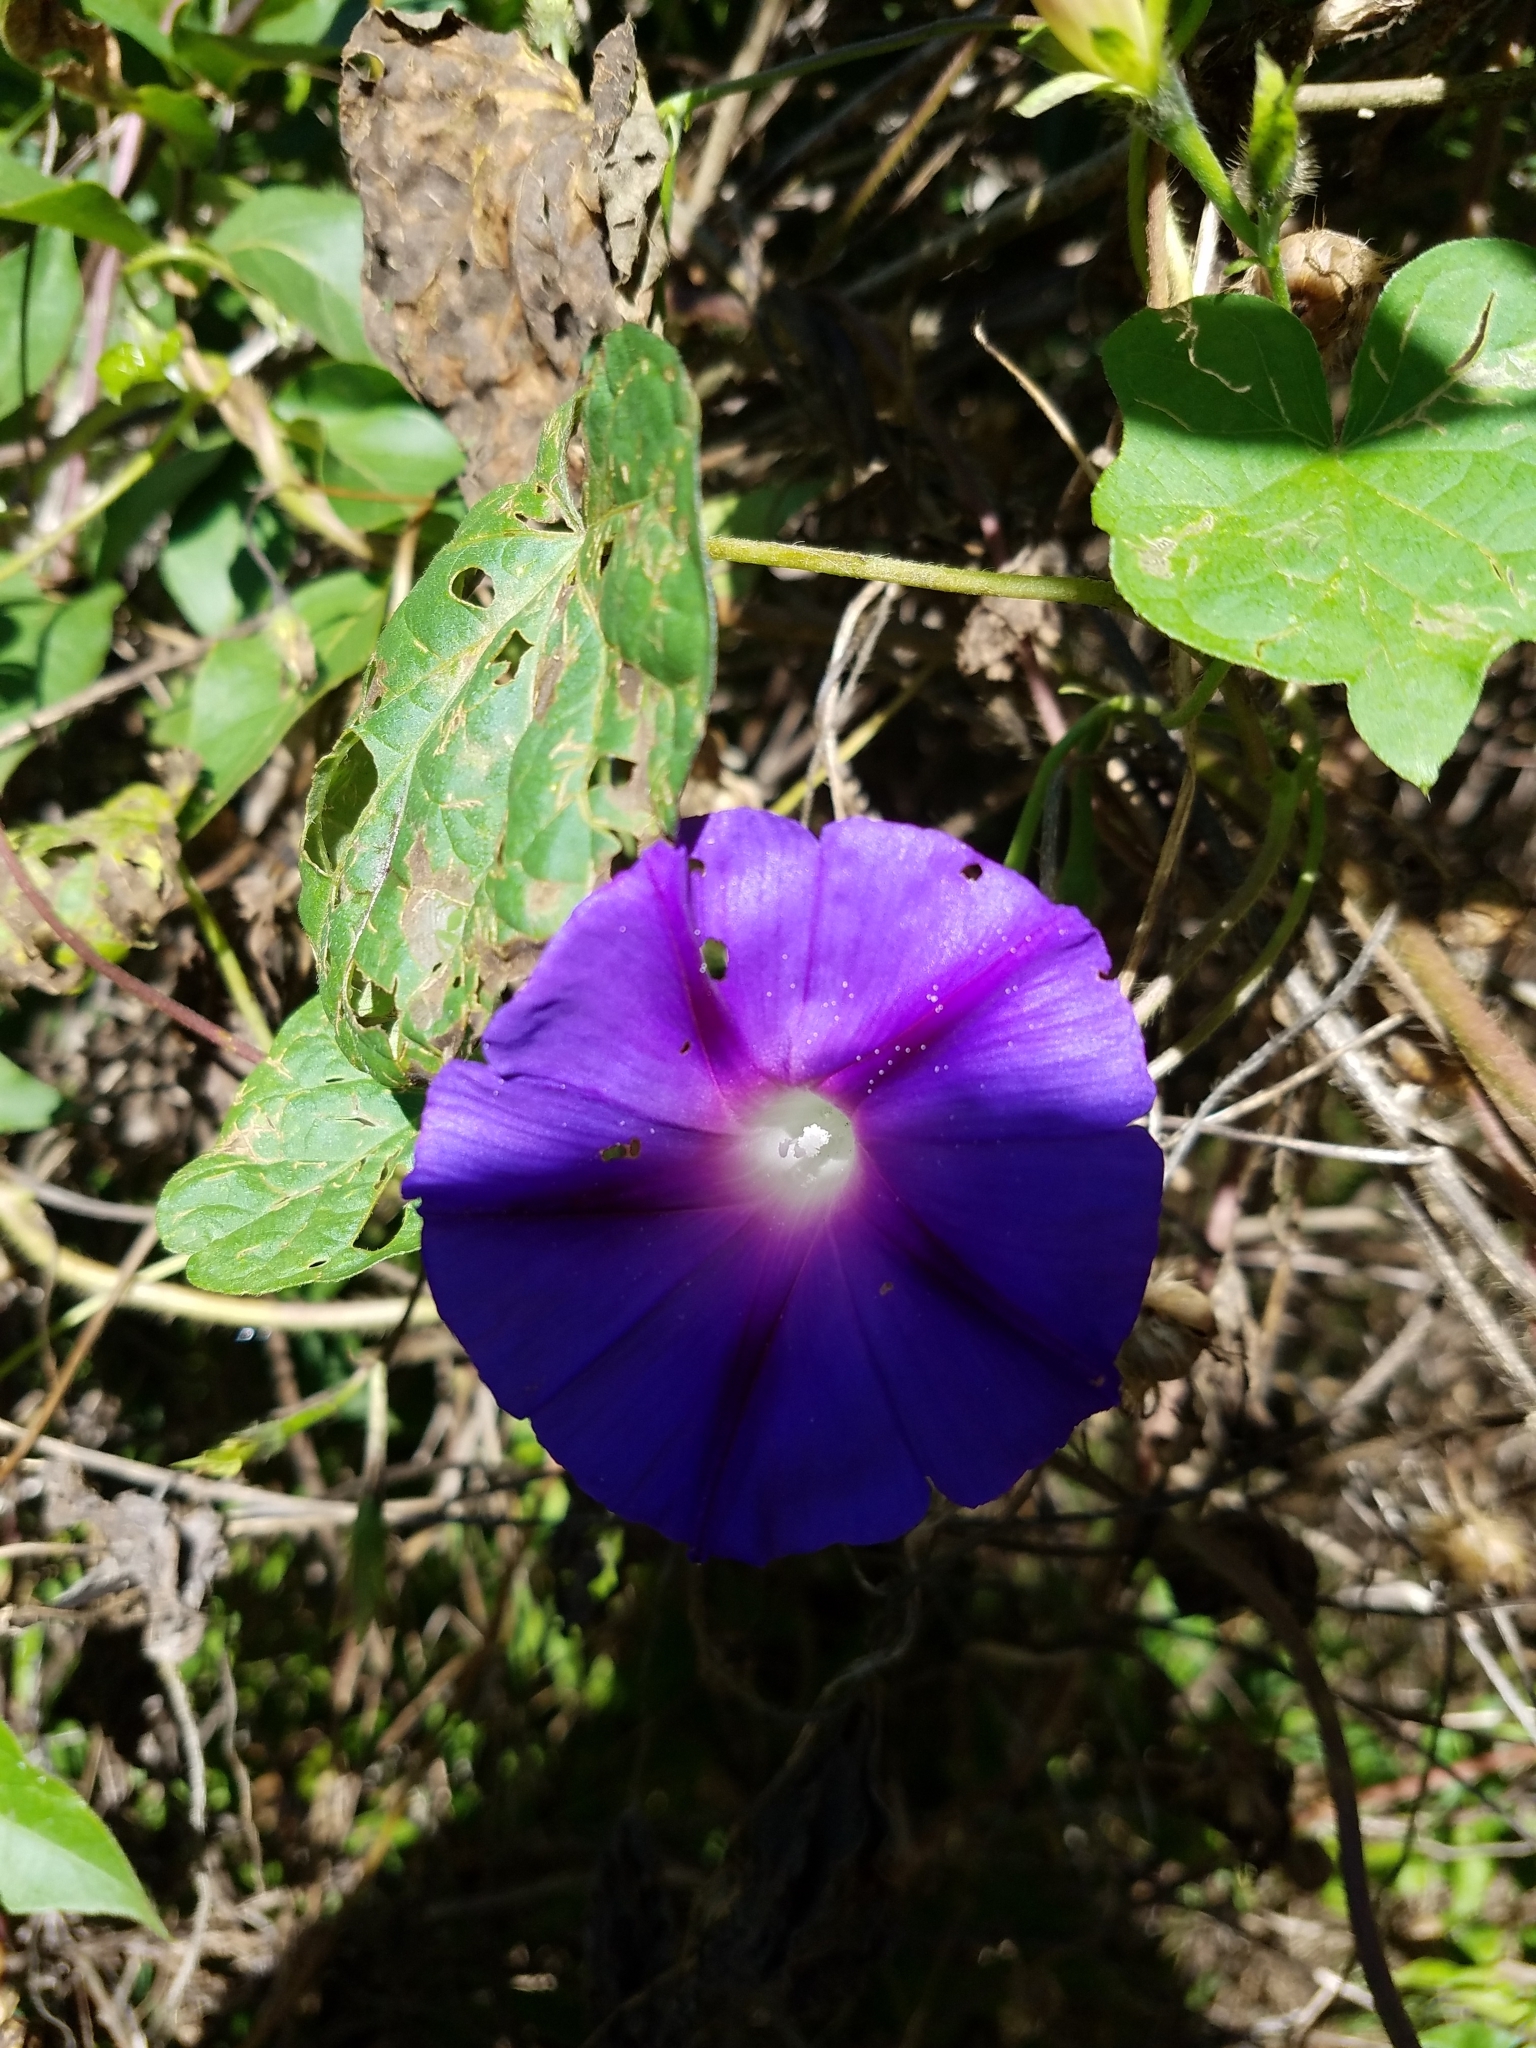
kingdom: Plantae
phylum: Tracheophyta
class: Magnoliopsida
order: Solanales
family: Convolvulaceae
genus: Ipomoea
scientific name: Ipomoea purpurea
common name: Common morning-glory
